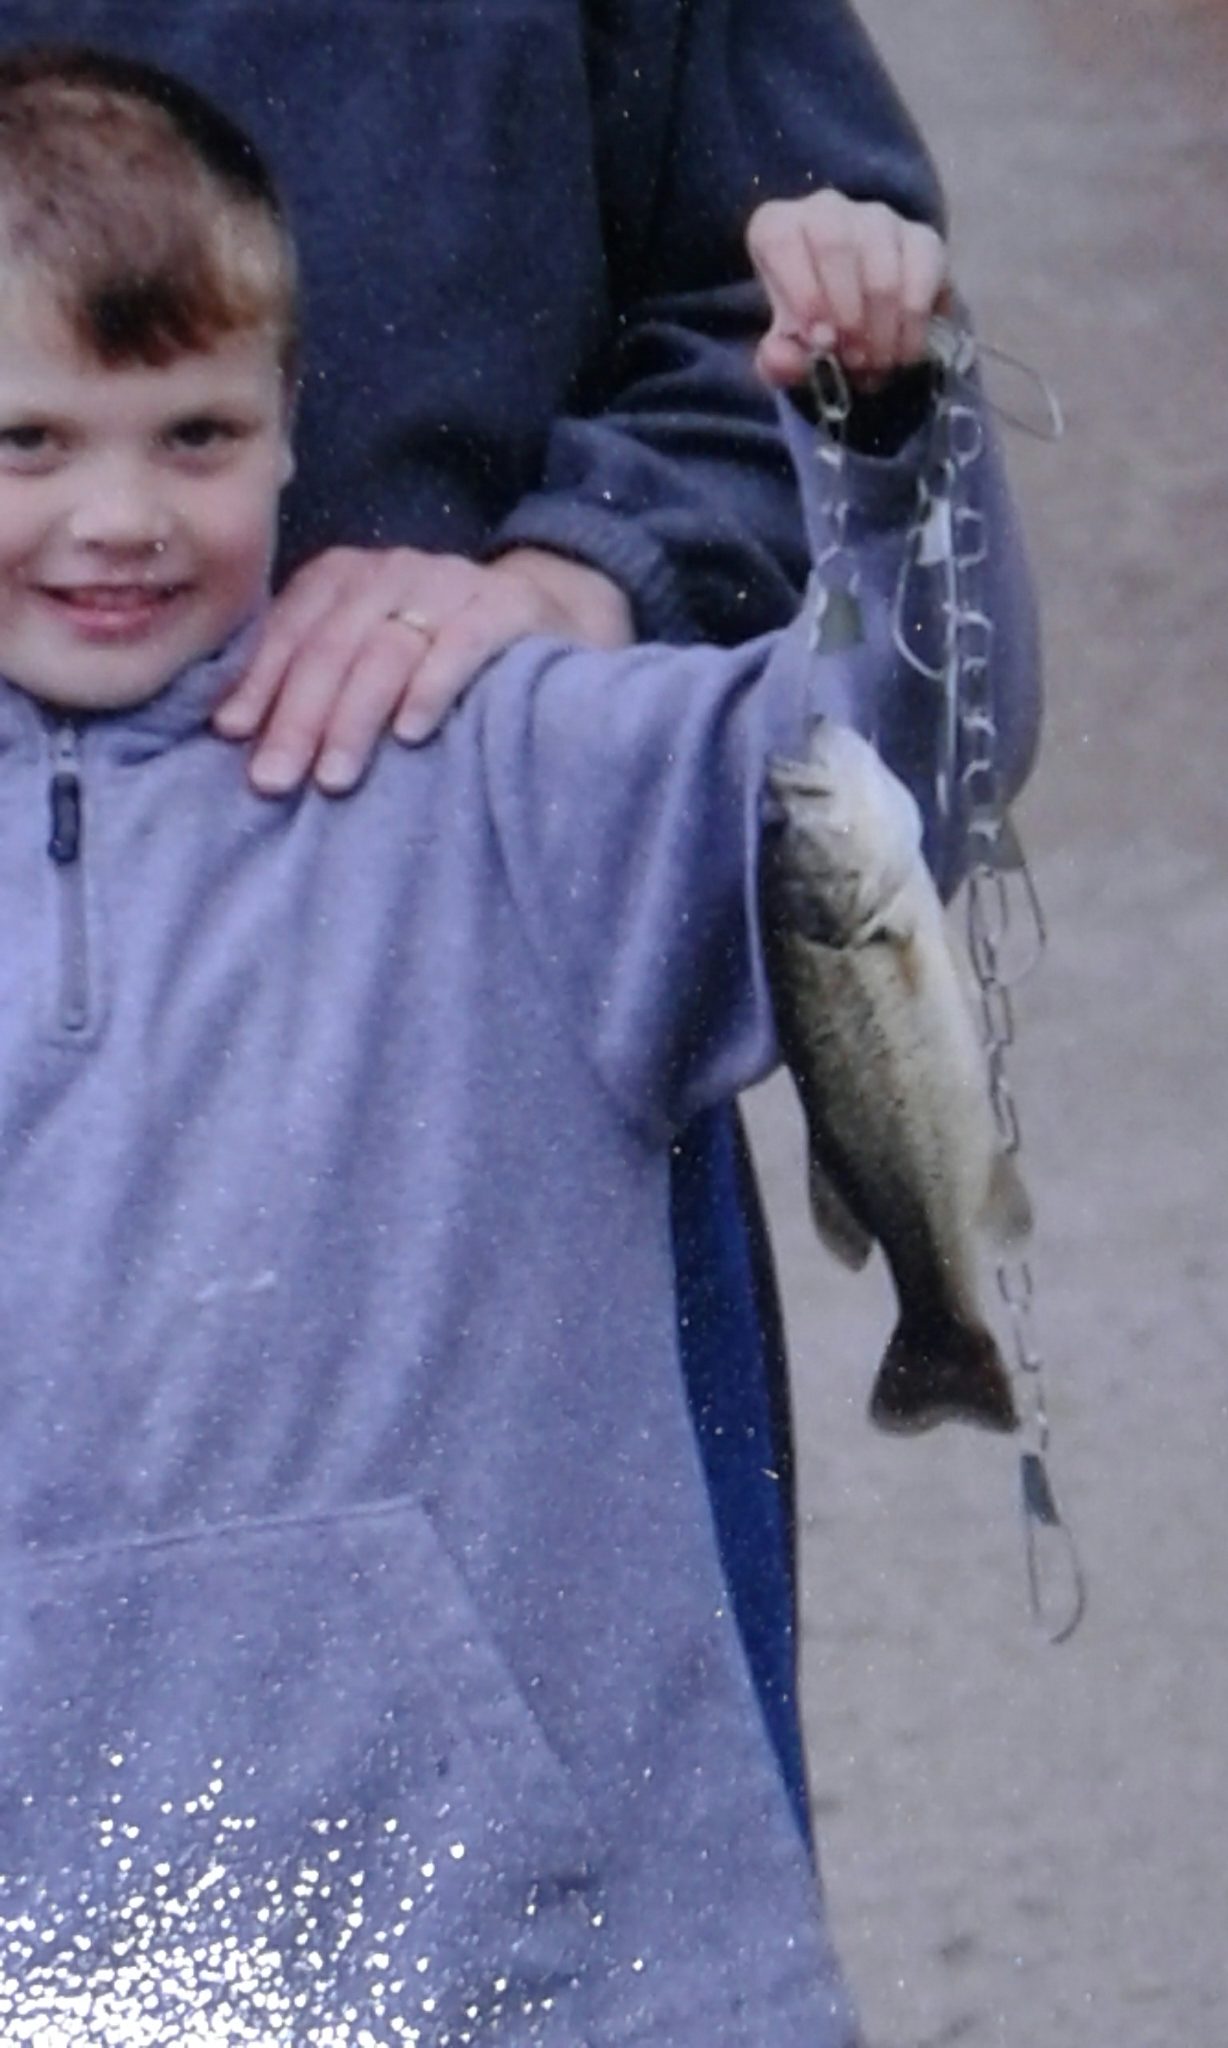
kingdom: Animalia
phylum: Chordata
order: Perciformes
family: Centrarchidae
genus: Micropterus
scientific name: Micropterus
